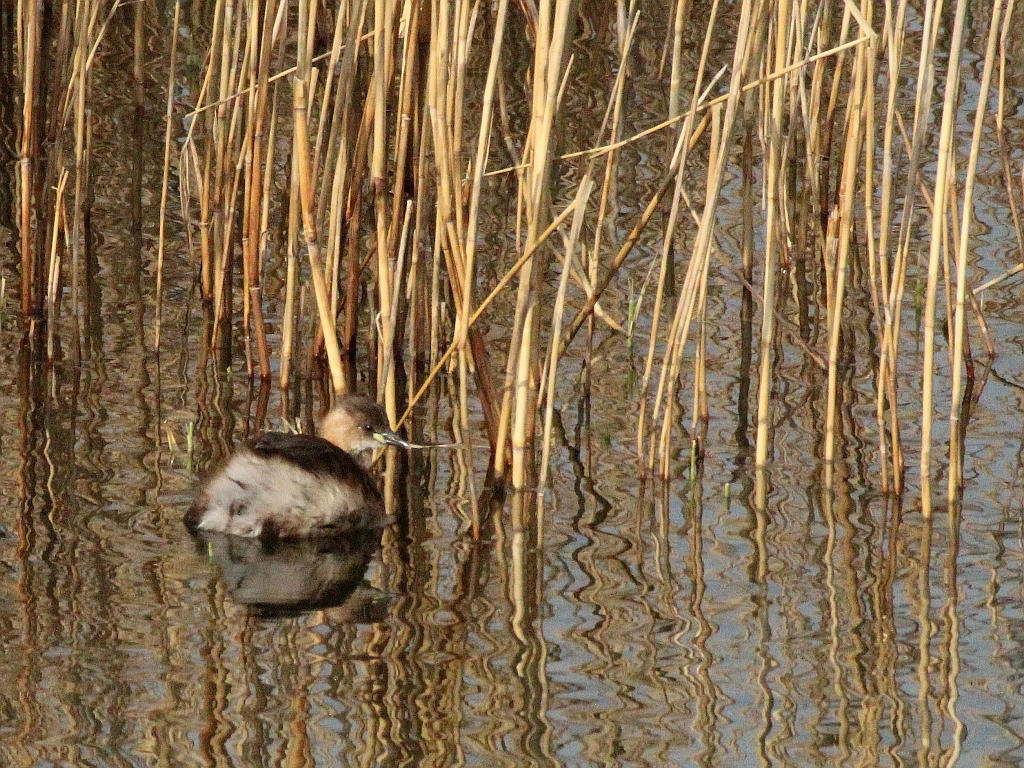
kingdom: Animalia
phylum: Chordata
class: Aves
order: Podicipediformes
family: Podicipedidae
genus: Tachybaptus
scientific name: Tachybaptus ruficollis
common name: Little grebe
